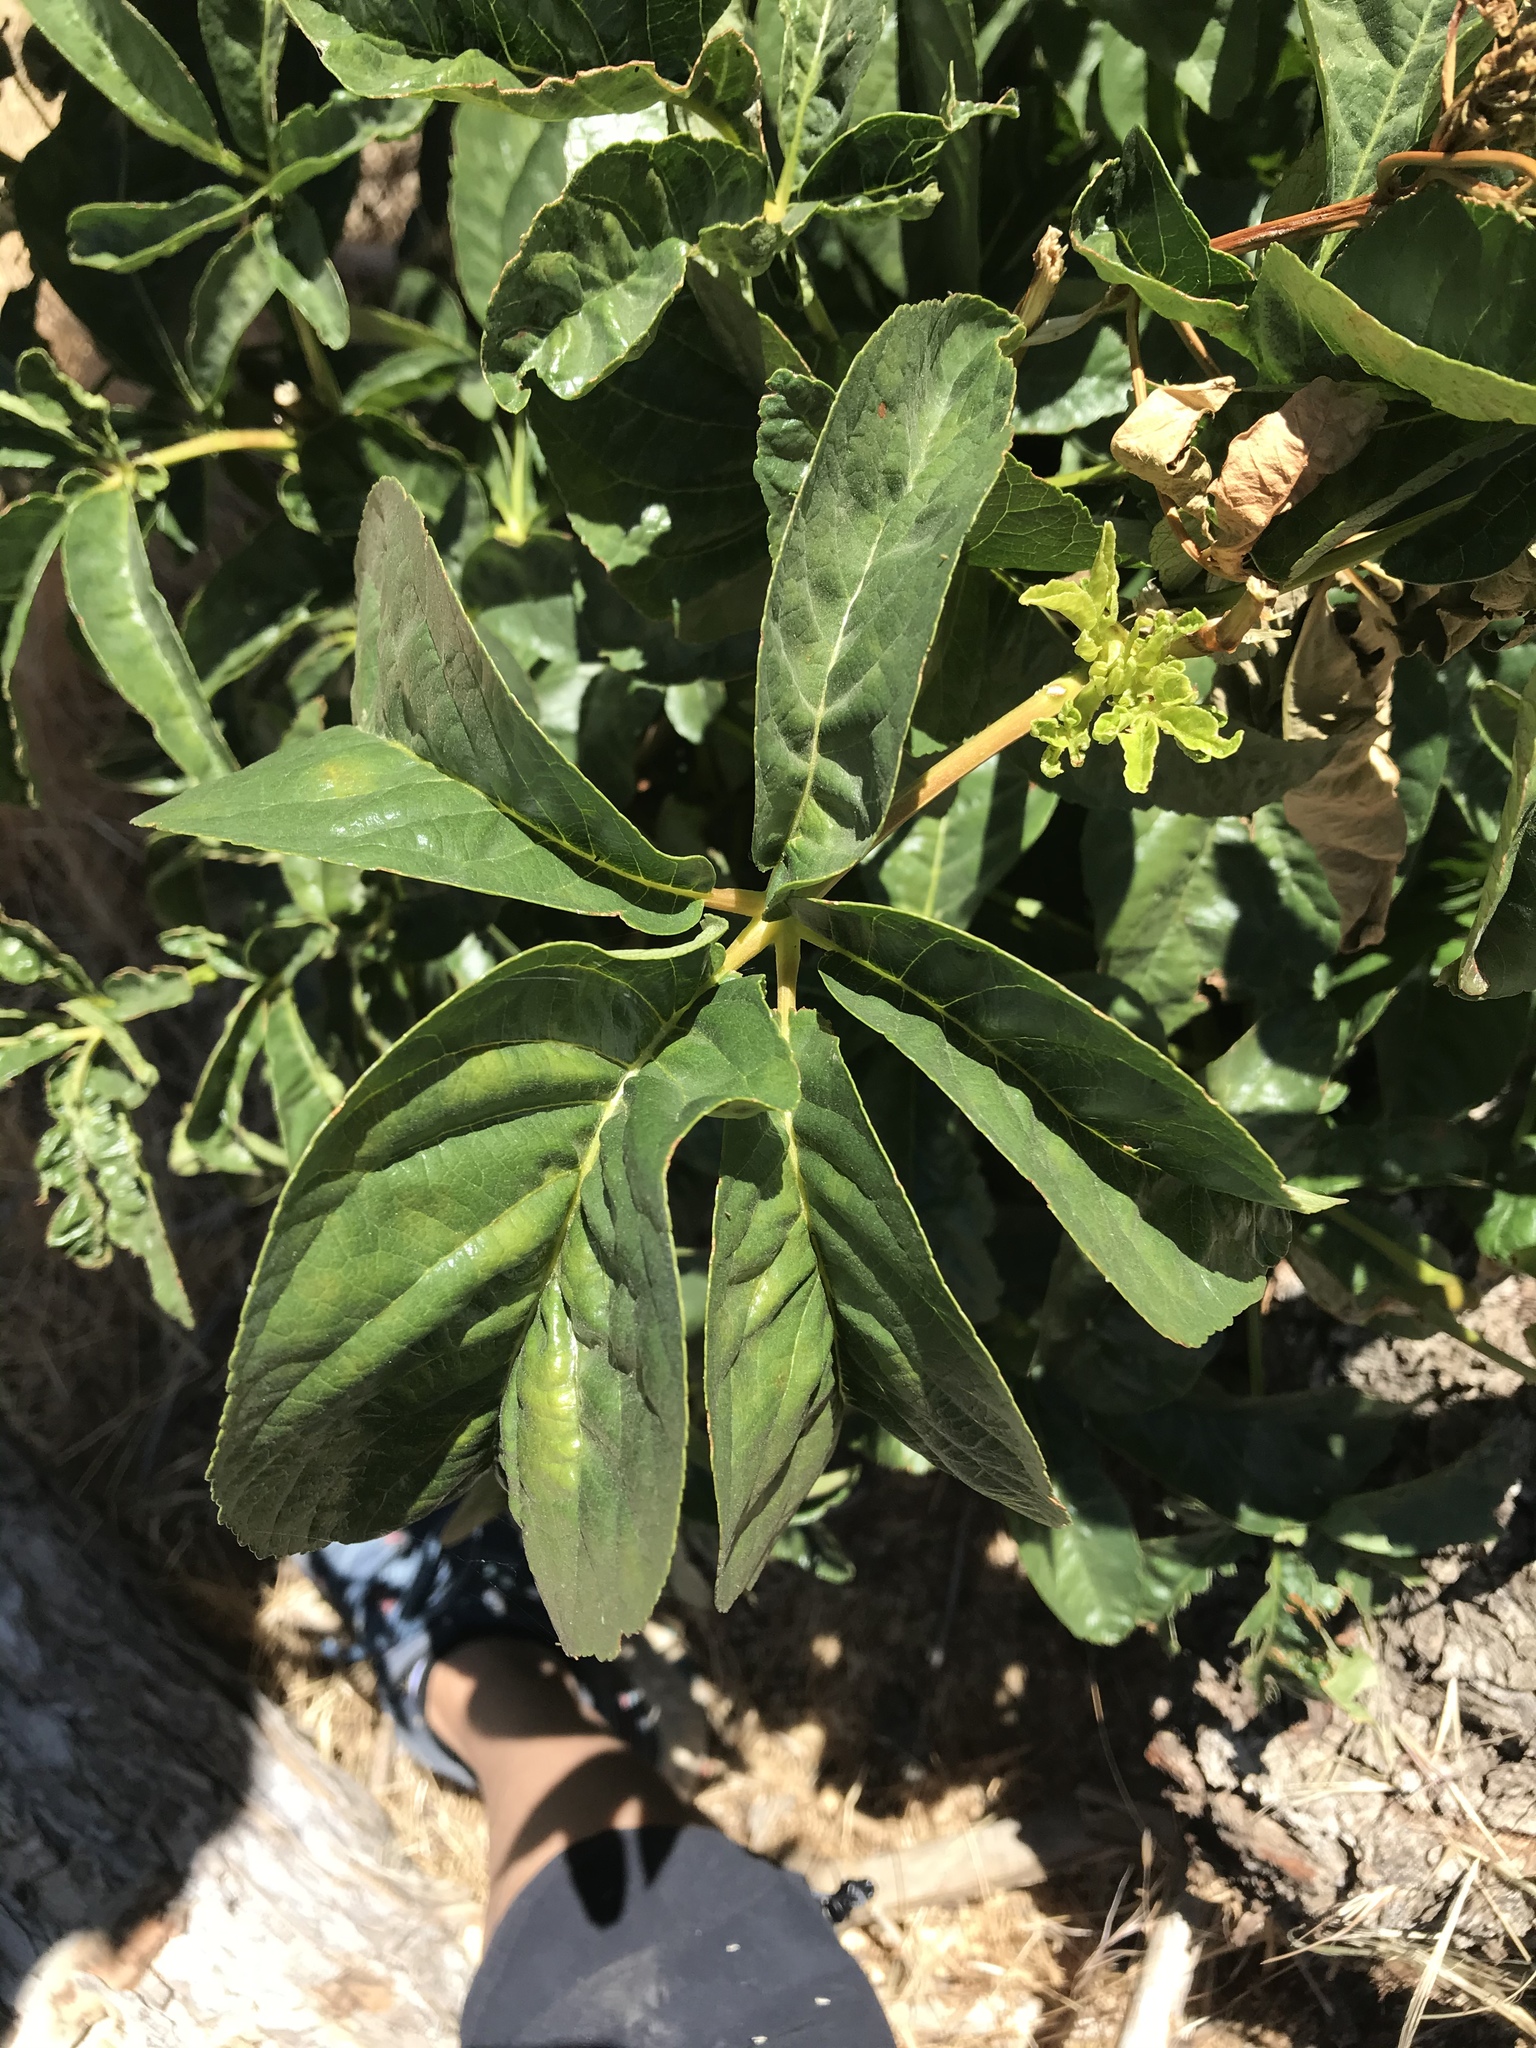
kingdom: Plantae
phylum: Tracheophyta
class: Magnoliopsida
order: Sapindales
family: Sapindaceae
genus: Aesculus
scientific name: Aesculus californica
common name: California buckeye
